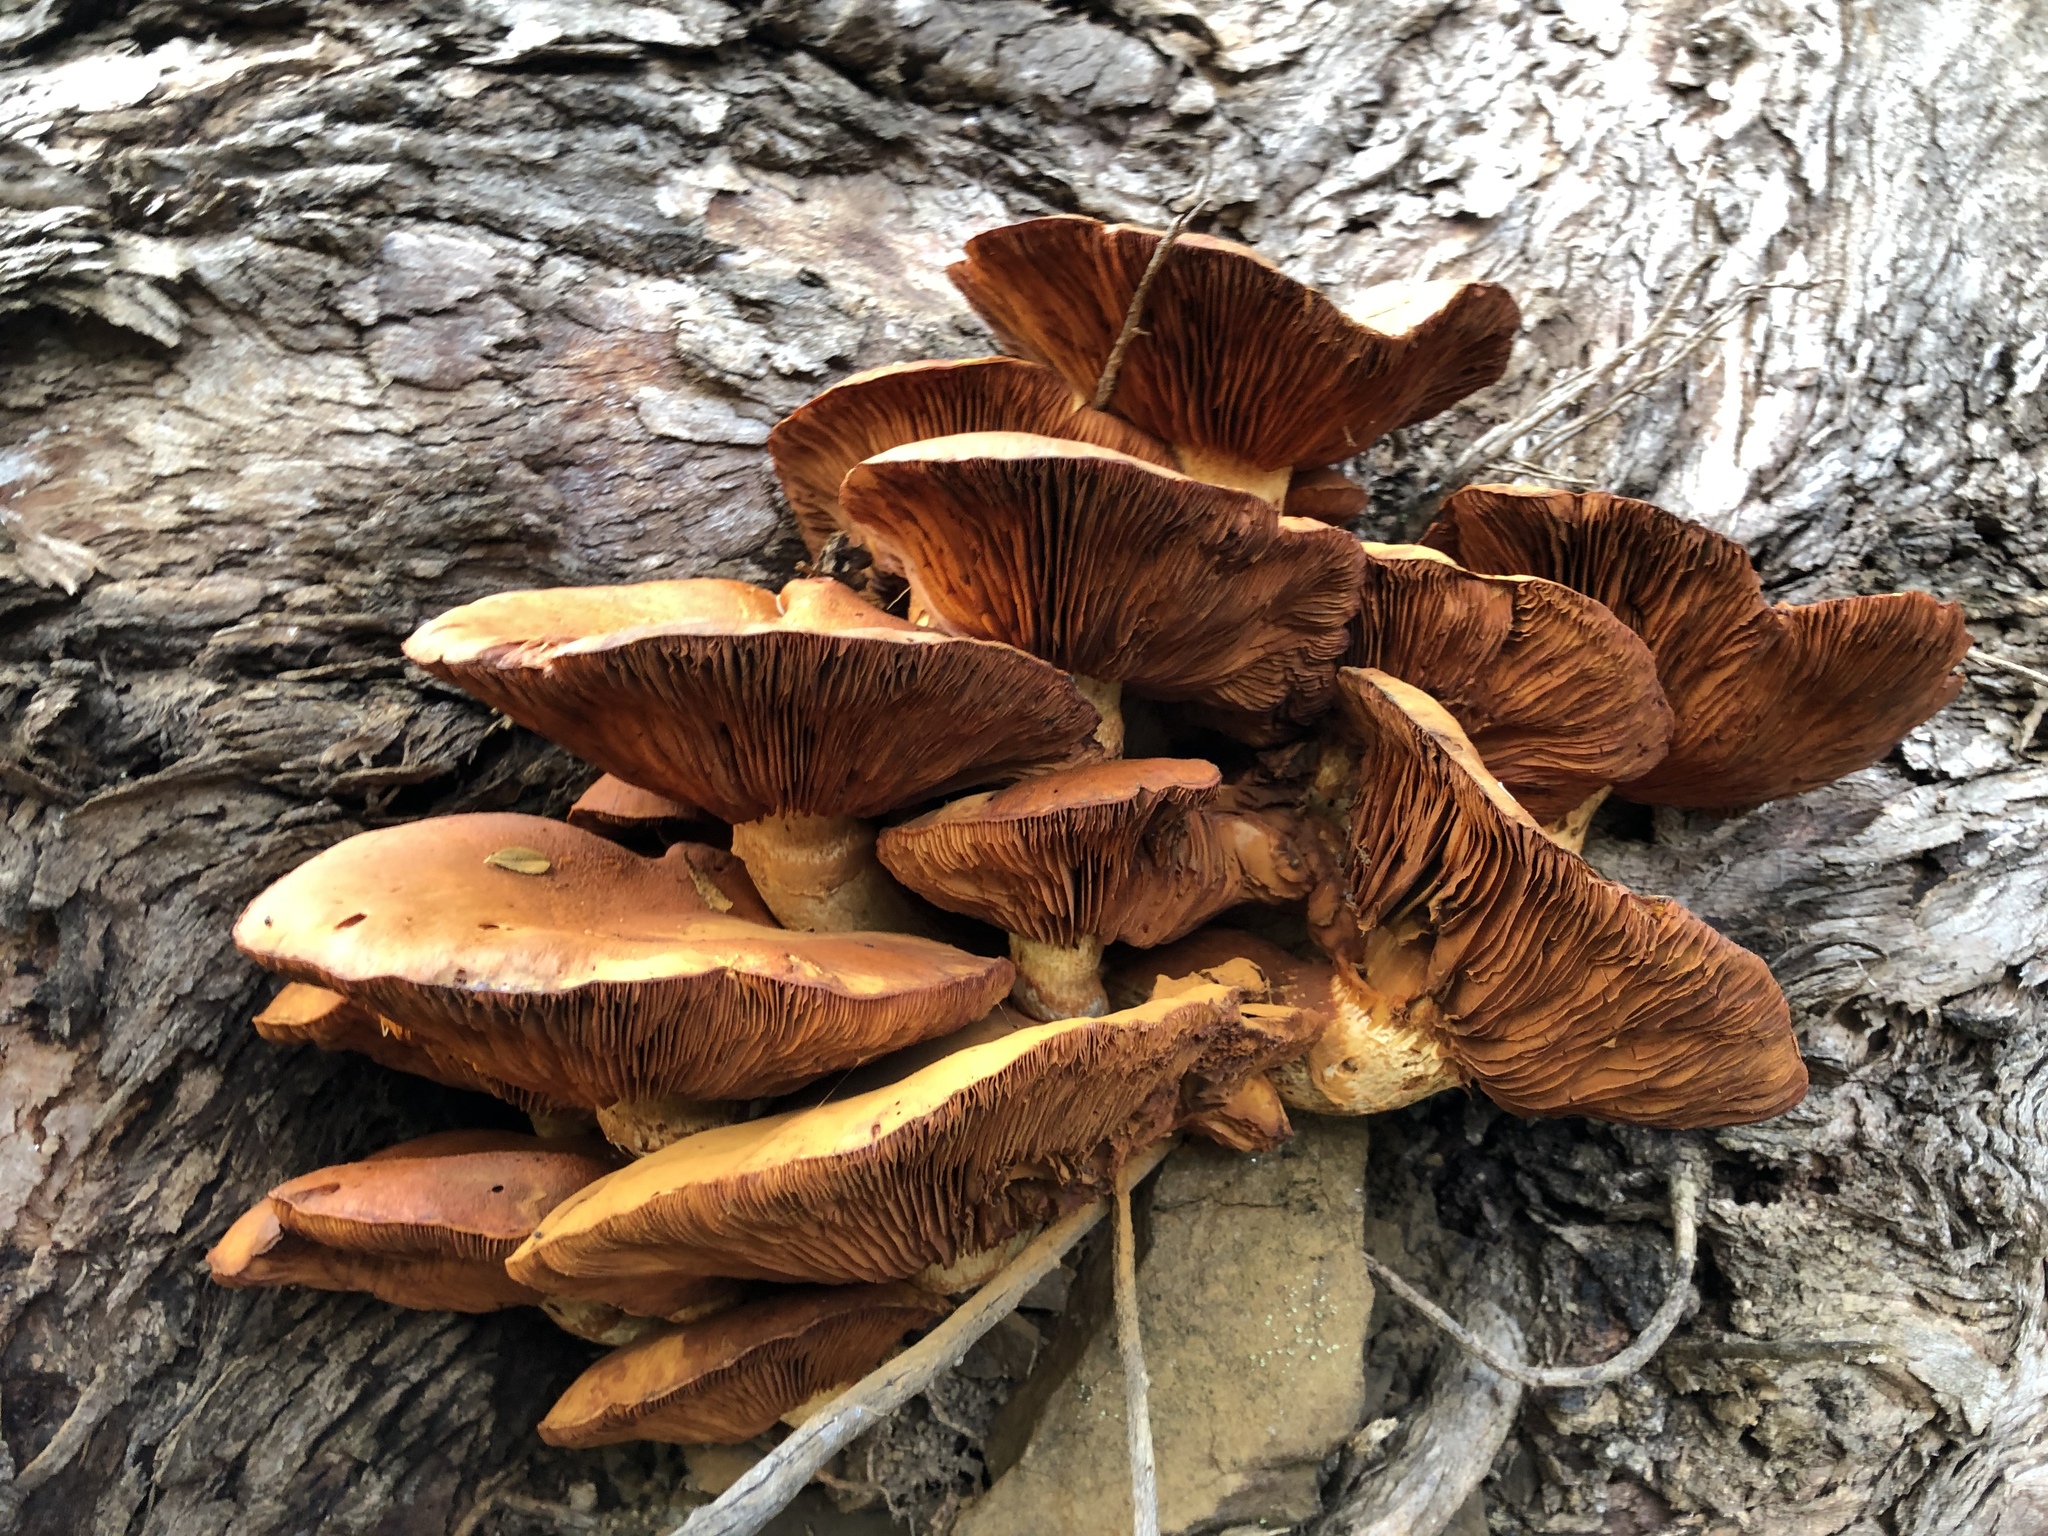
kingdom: Fungi
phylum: Basidiomycota
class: Agaricomycetes
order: Agaricales
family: Hymenogastraceae
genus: Gymnopilus
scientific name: Gymnopilus ventricosus
